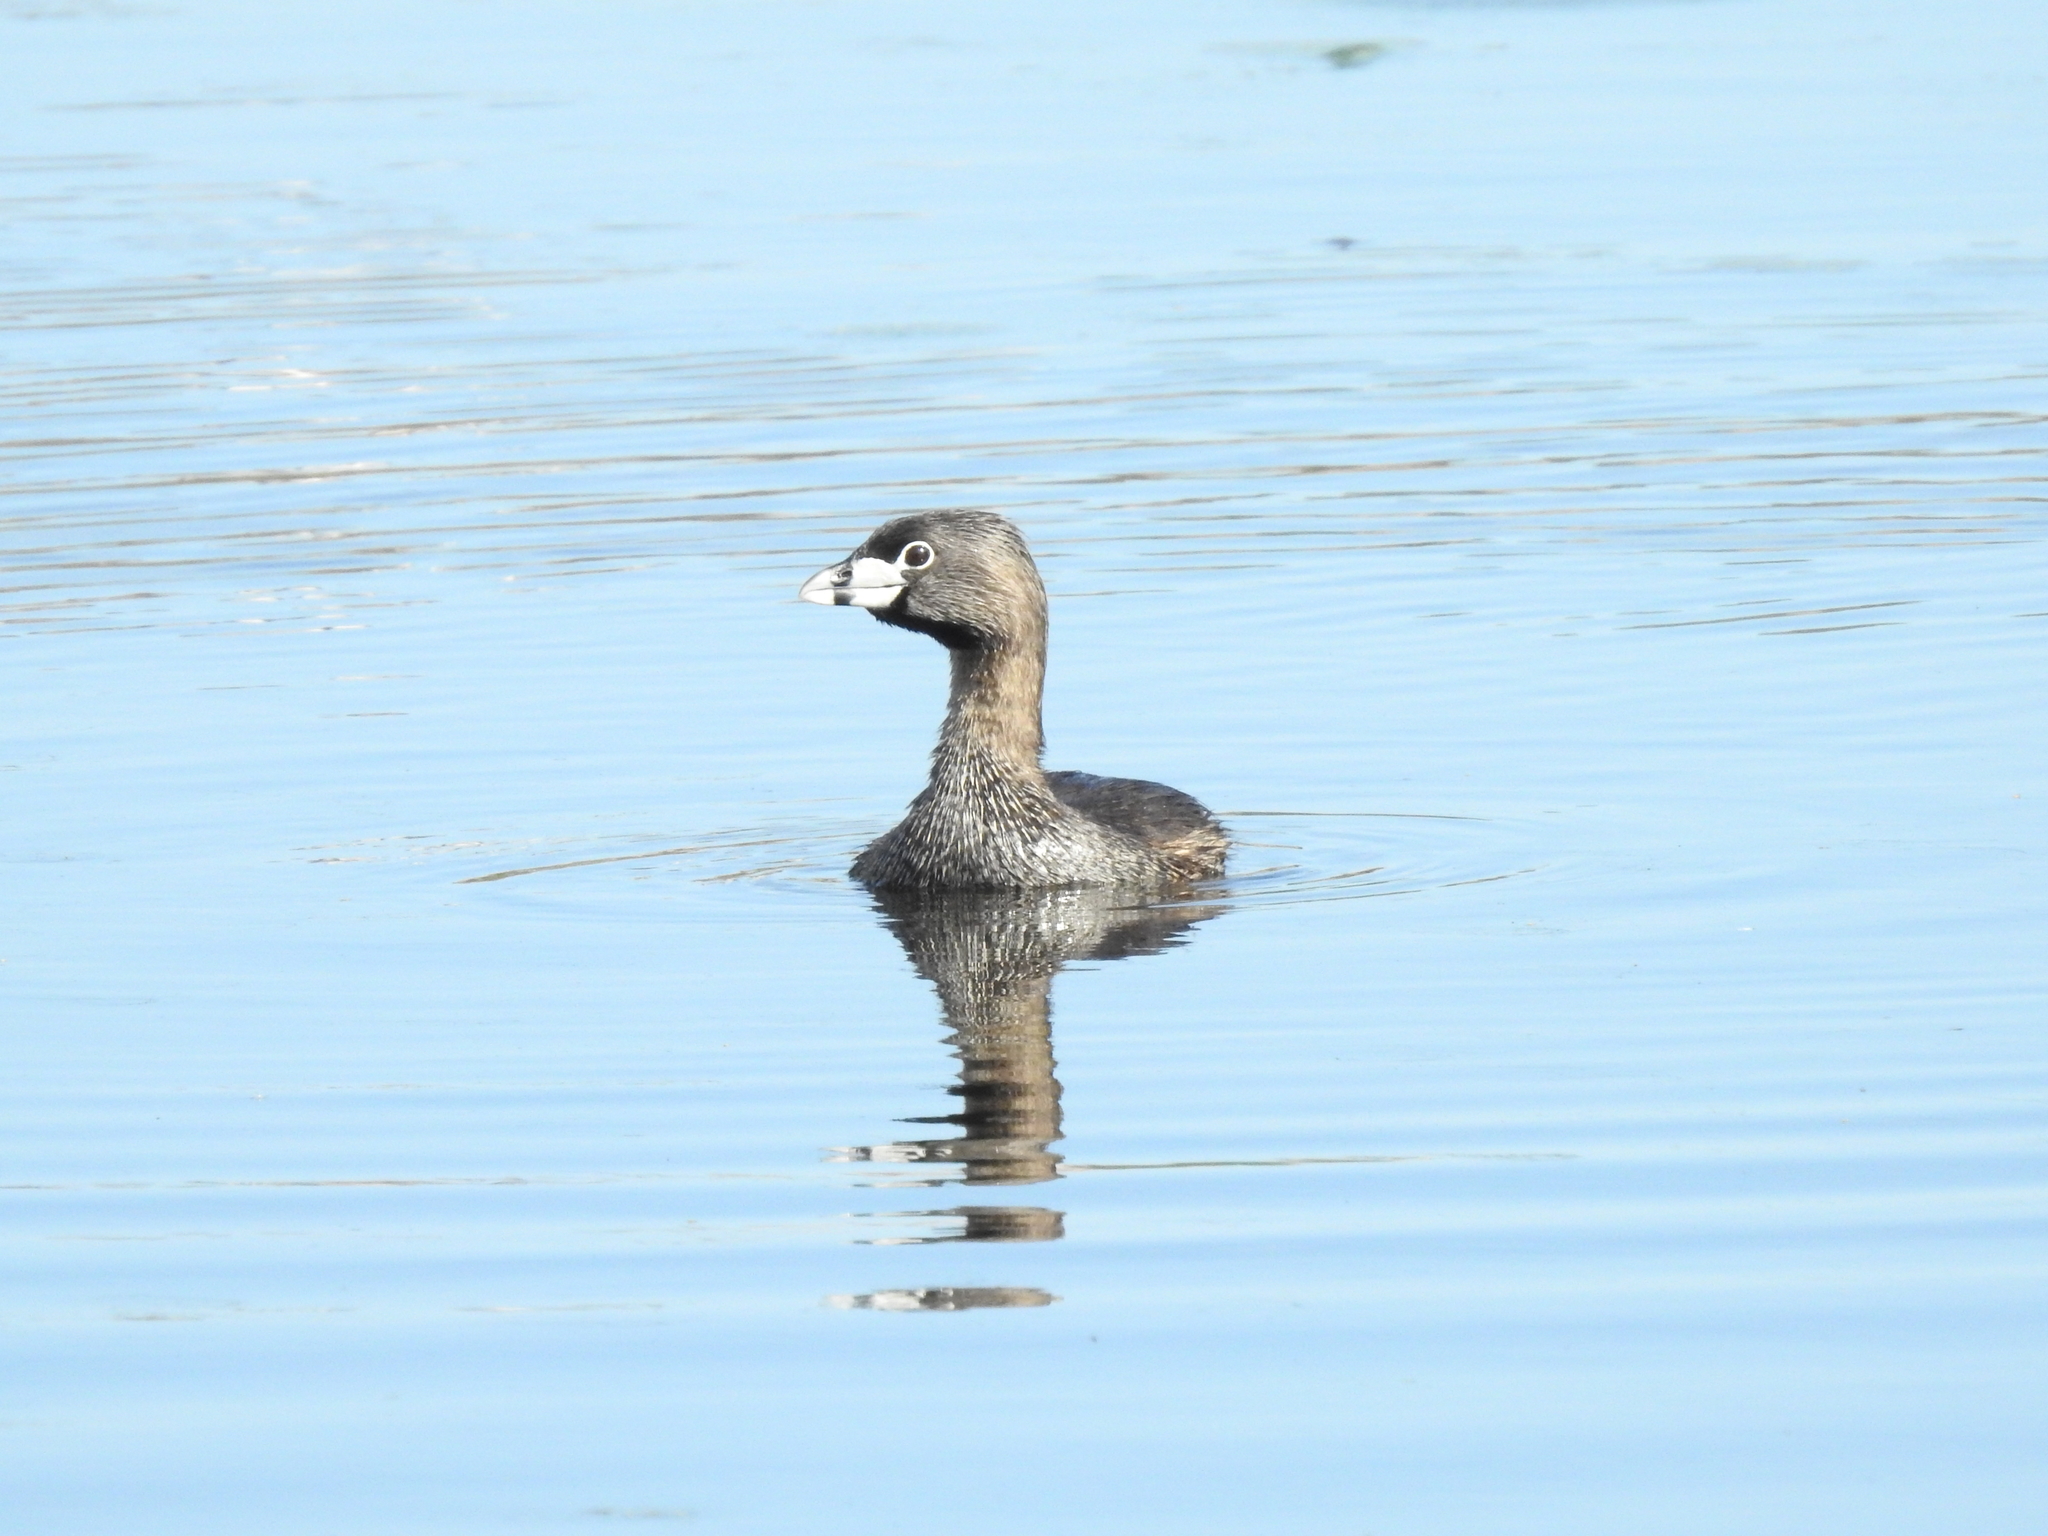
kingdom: Animalia
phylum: Chordata
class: Aves
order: Podicipediformes
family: Podicipedidae
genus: Podilymbus
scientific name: Podilymbus podiceps
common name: Pied-billed grebe
